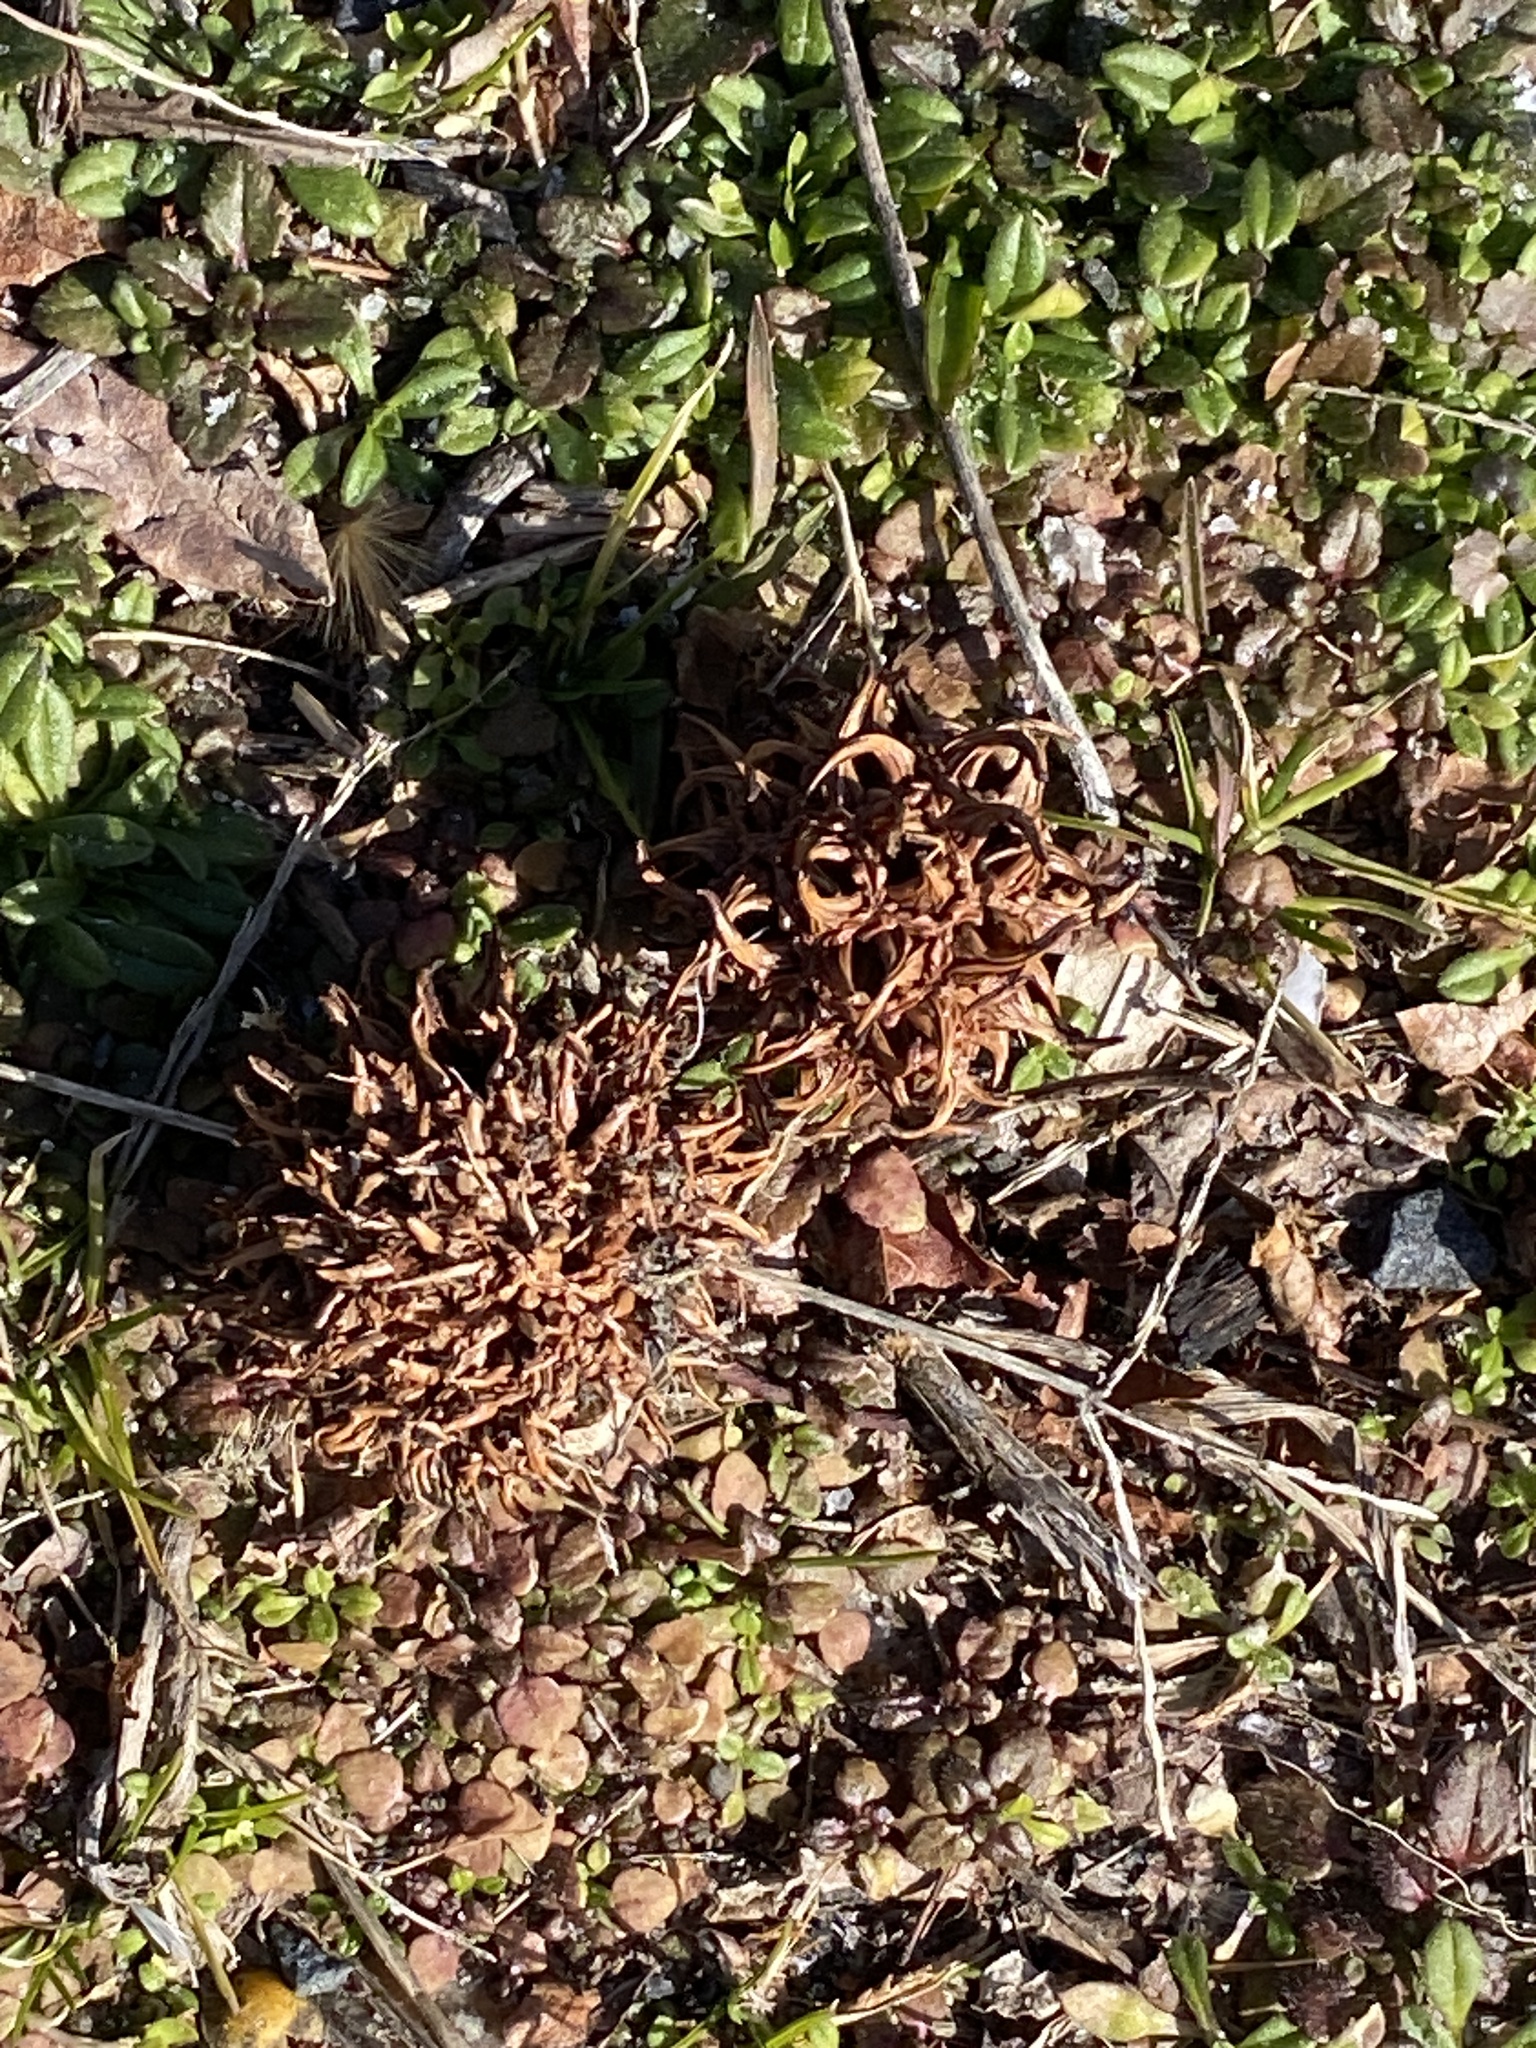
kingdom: Plantae
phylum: Tracheophyta
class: Magnoliopsida
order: Saxifragales
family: Altingiaceae
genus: Liquidambar
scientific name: Liquidambar styraciflua
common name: Sweet gum
